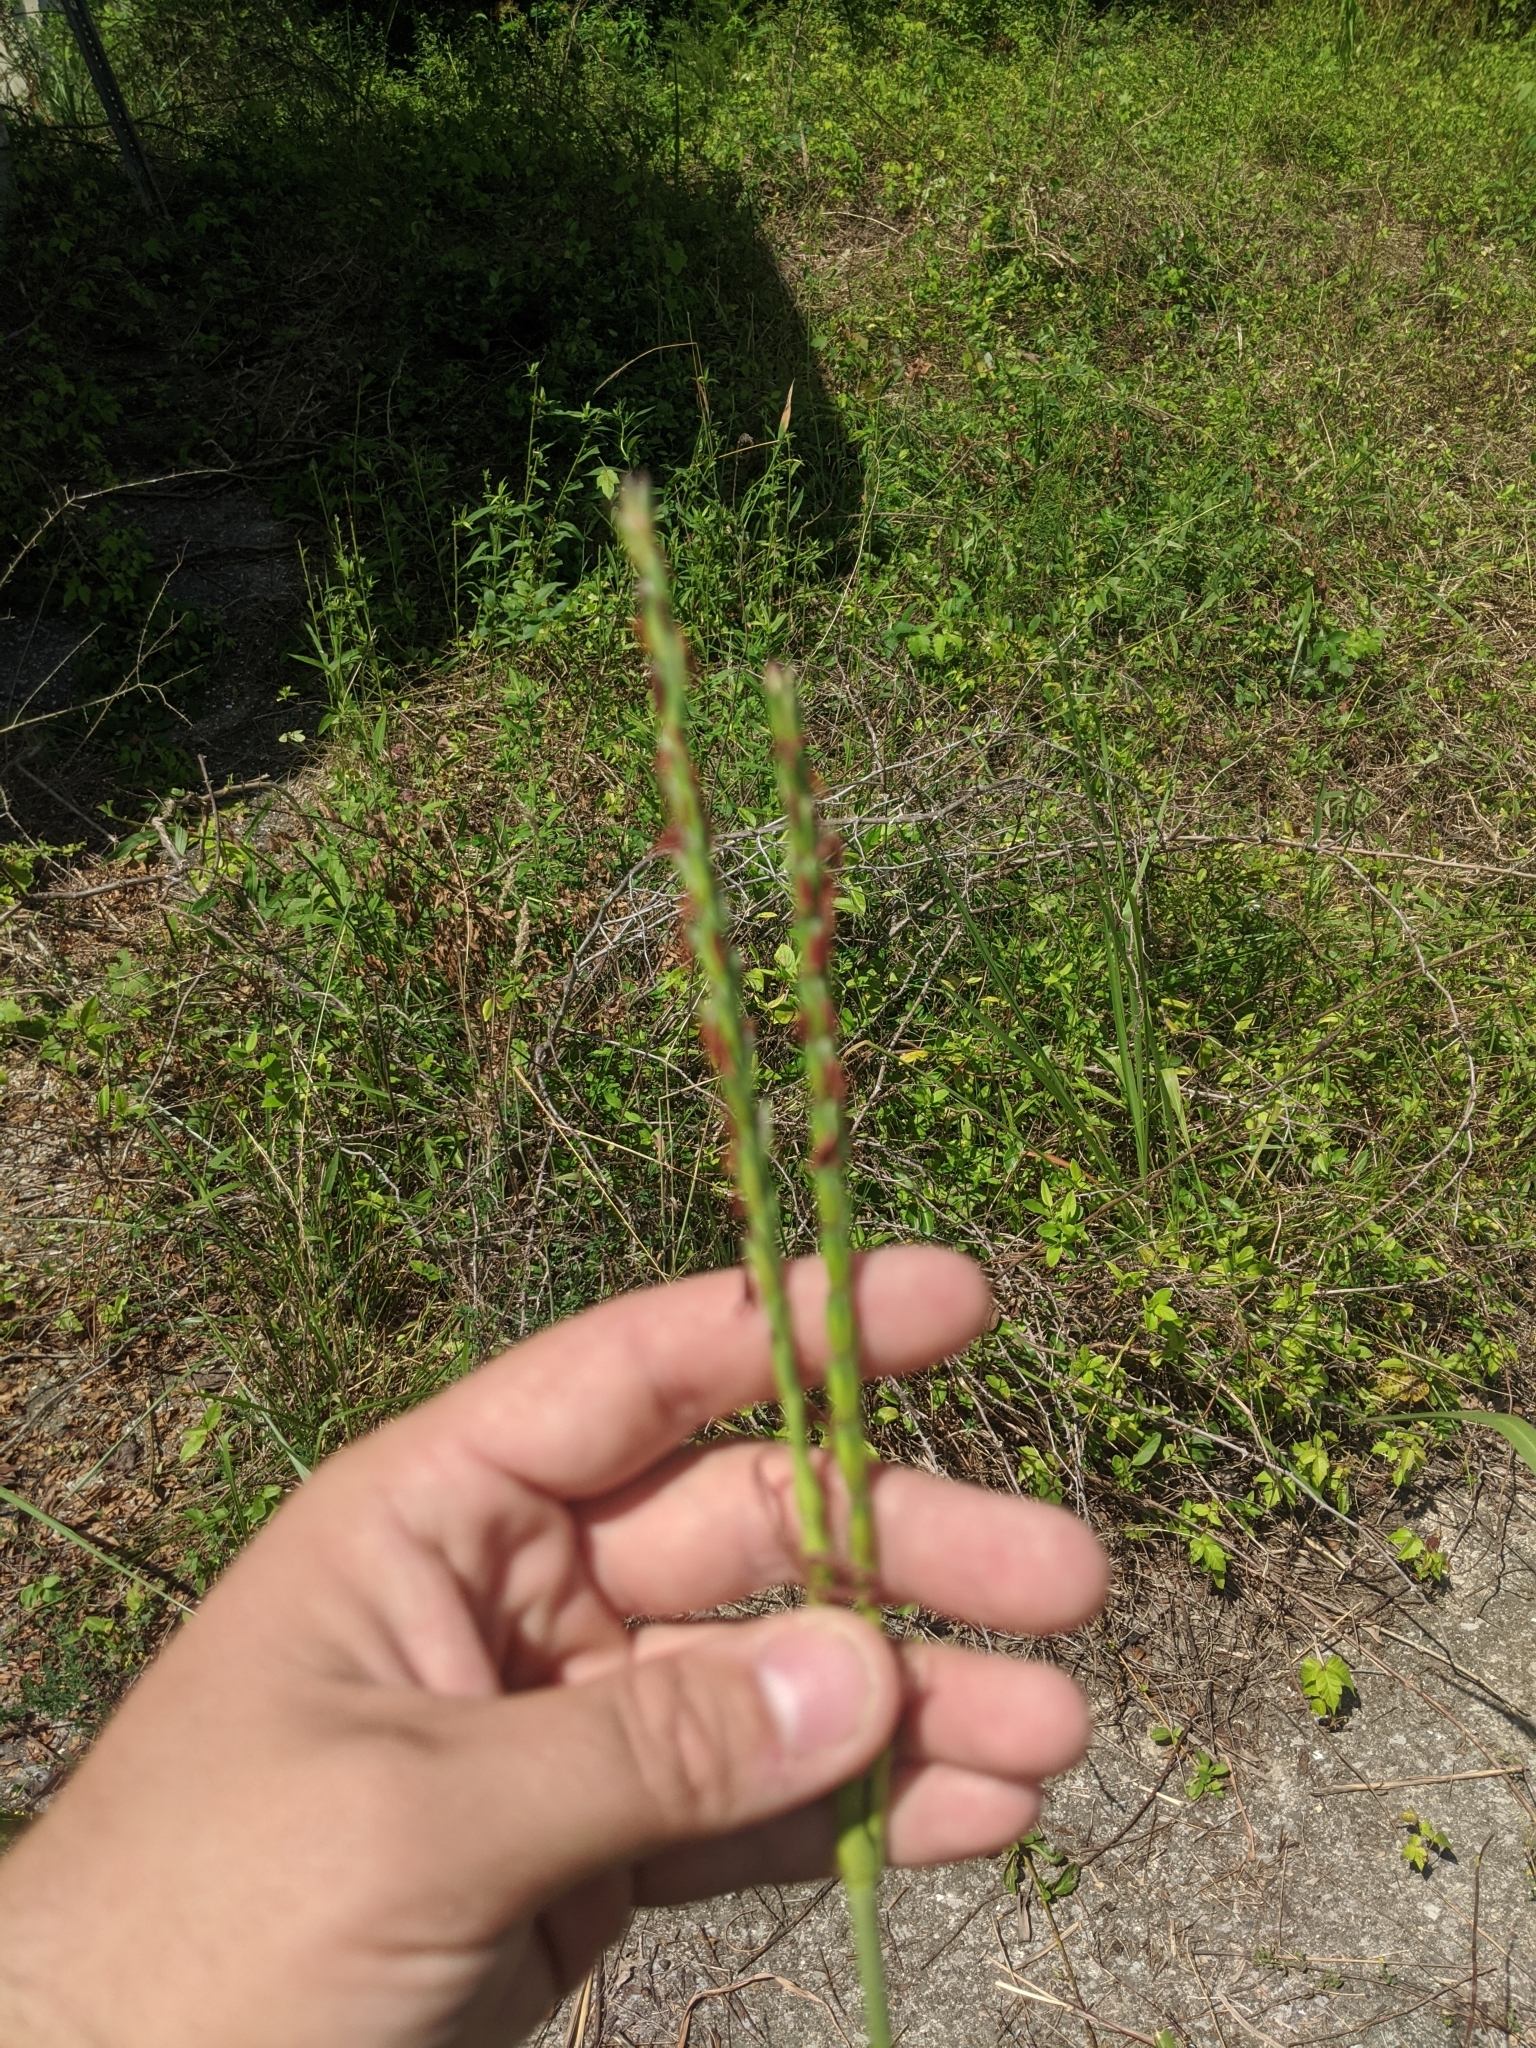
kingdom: Plantae
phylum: Tracheophyta
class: Liliopsida
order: Poales
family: Poaceae
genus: Tripsacum
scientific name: Tripsacum dactyloides
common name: Buffalo-grass
